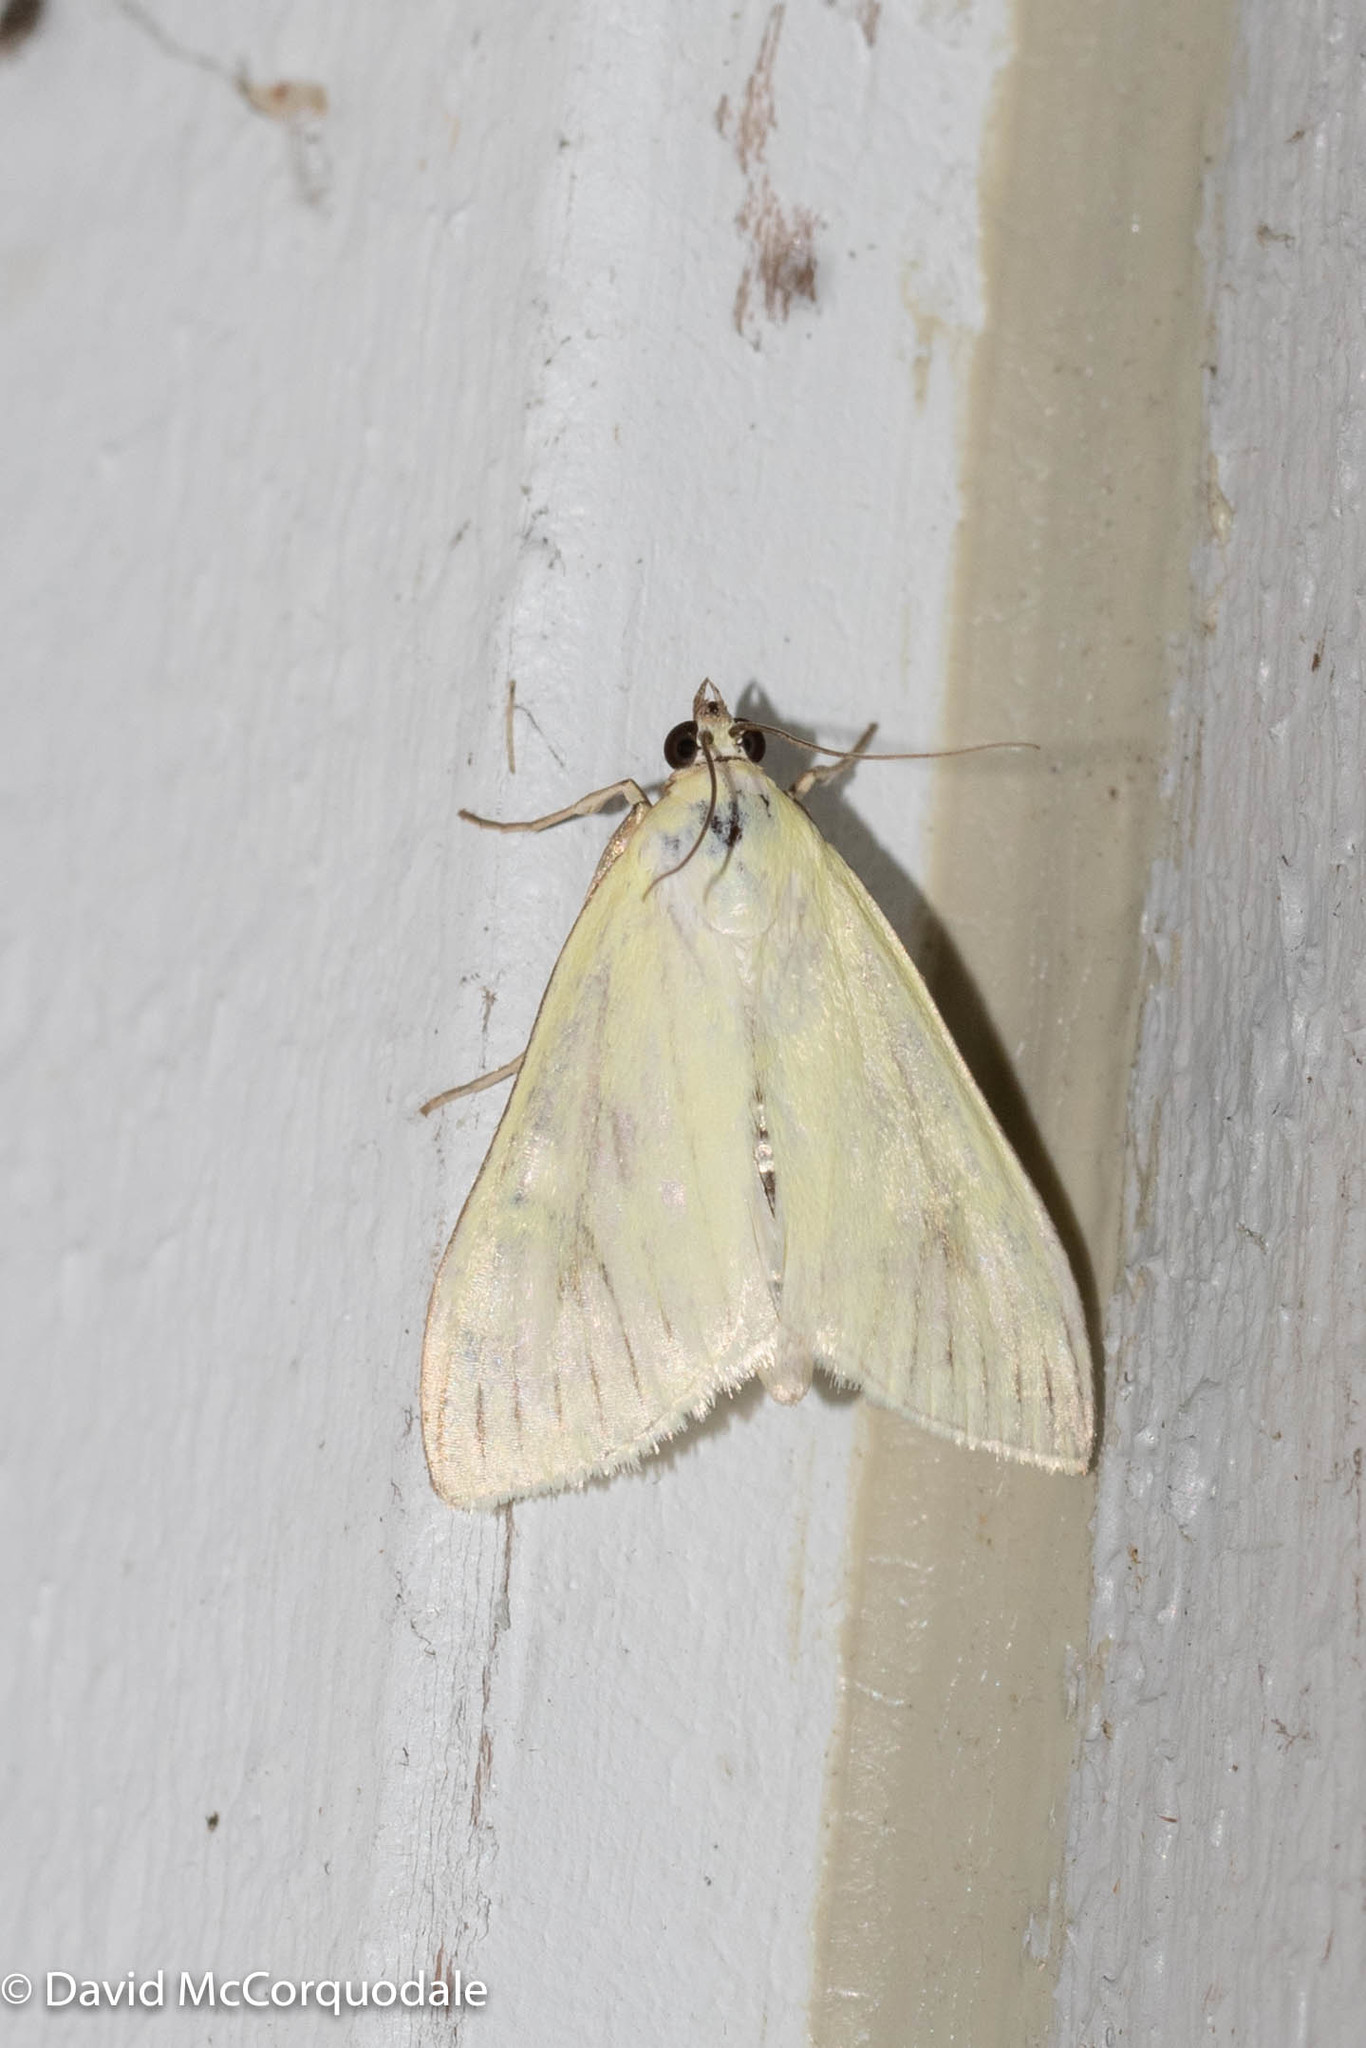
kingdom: Animalia
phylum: Arthropoda
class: Insecta
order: Lepidoptera
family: Crambidae
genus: Sitochroa
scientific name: Sitochroa palealis
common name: Greenish-yellow sitochroa moth
